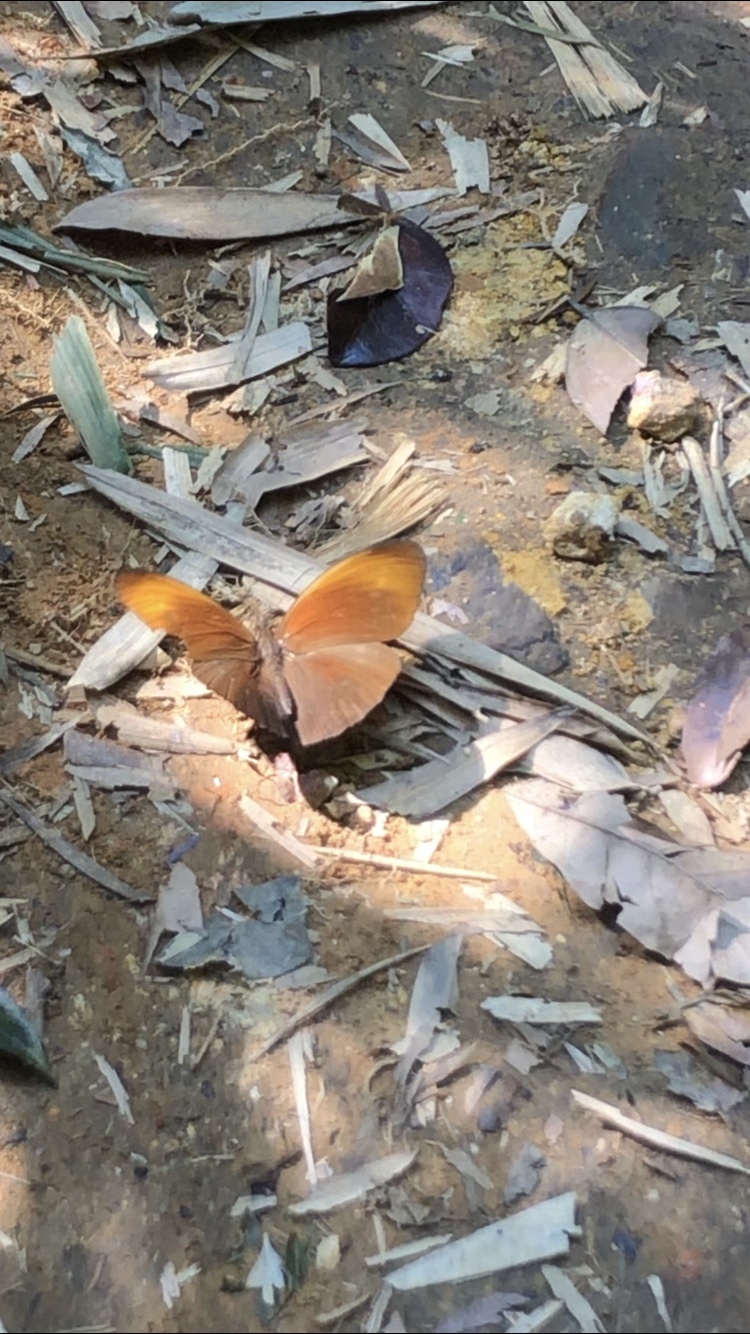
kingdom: Animalia
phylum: Arthropoda
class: Insecta
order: Lepidoptera
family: Nymphalidae
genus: Faunis
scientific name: Faunis eumeus
